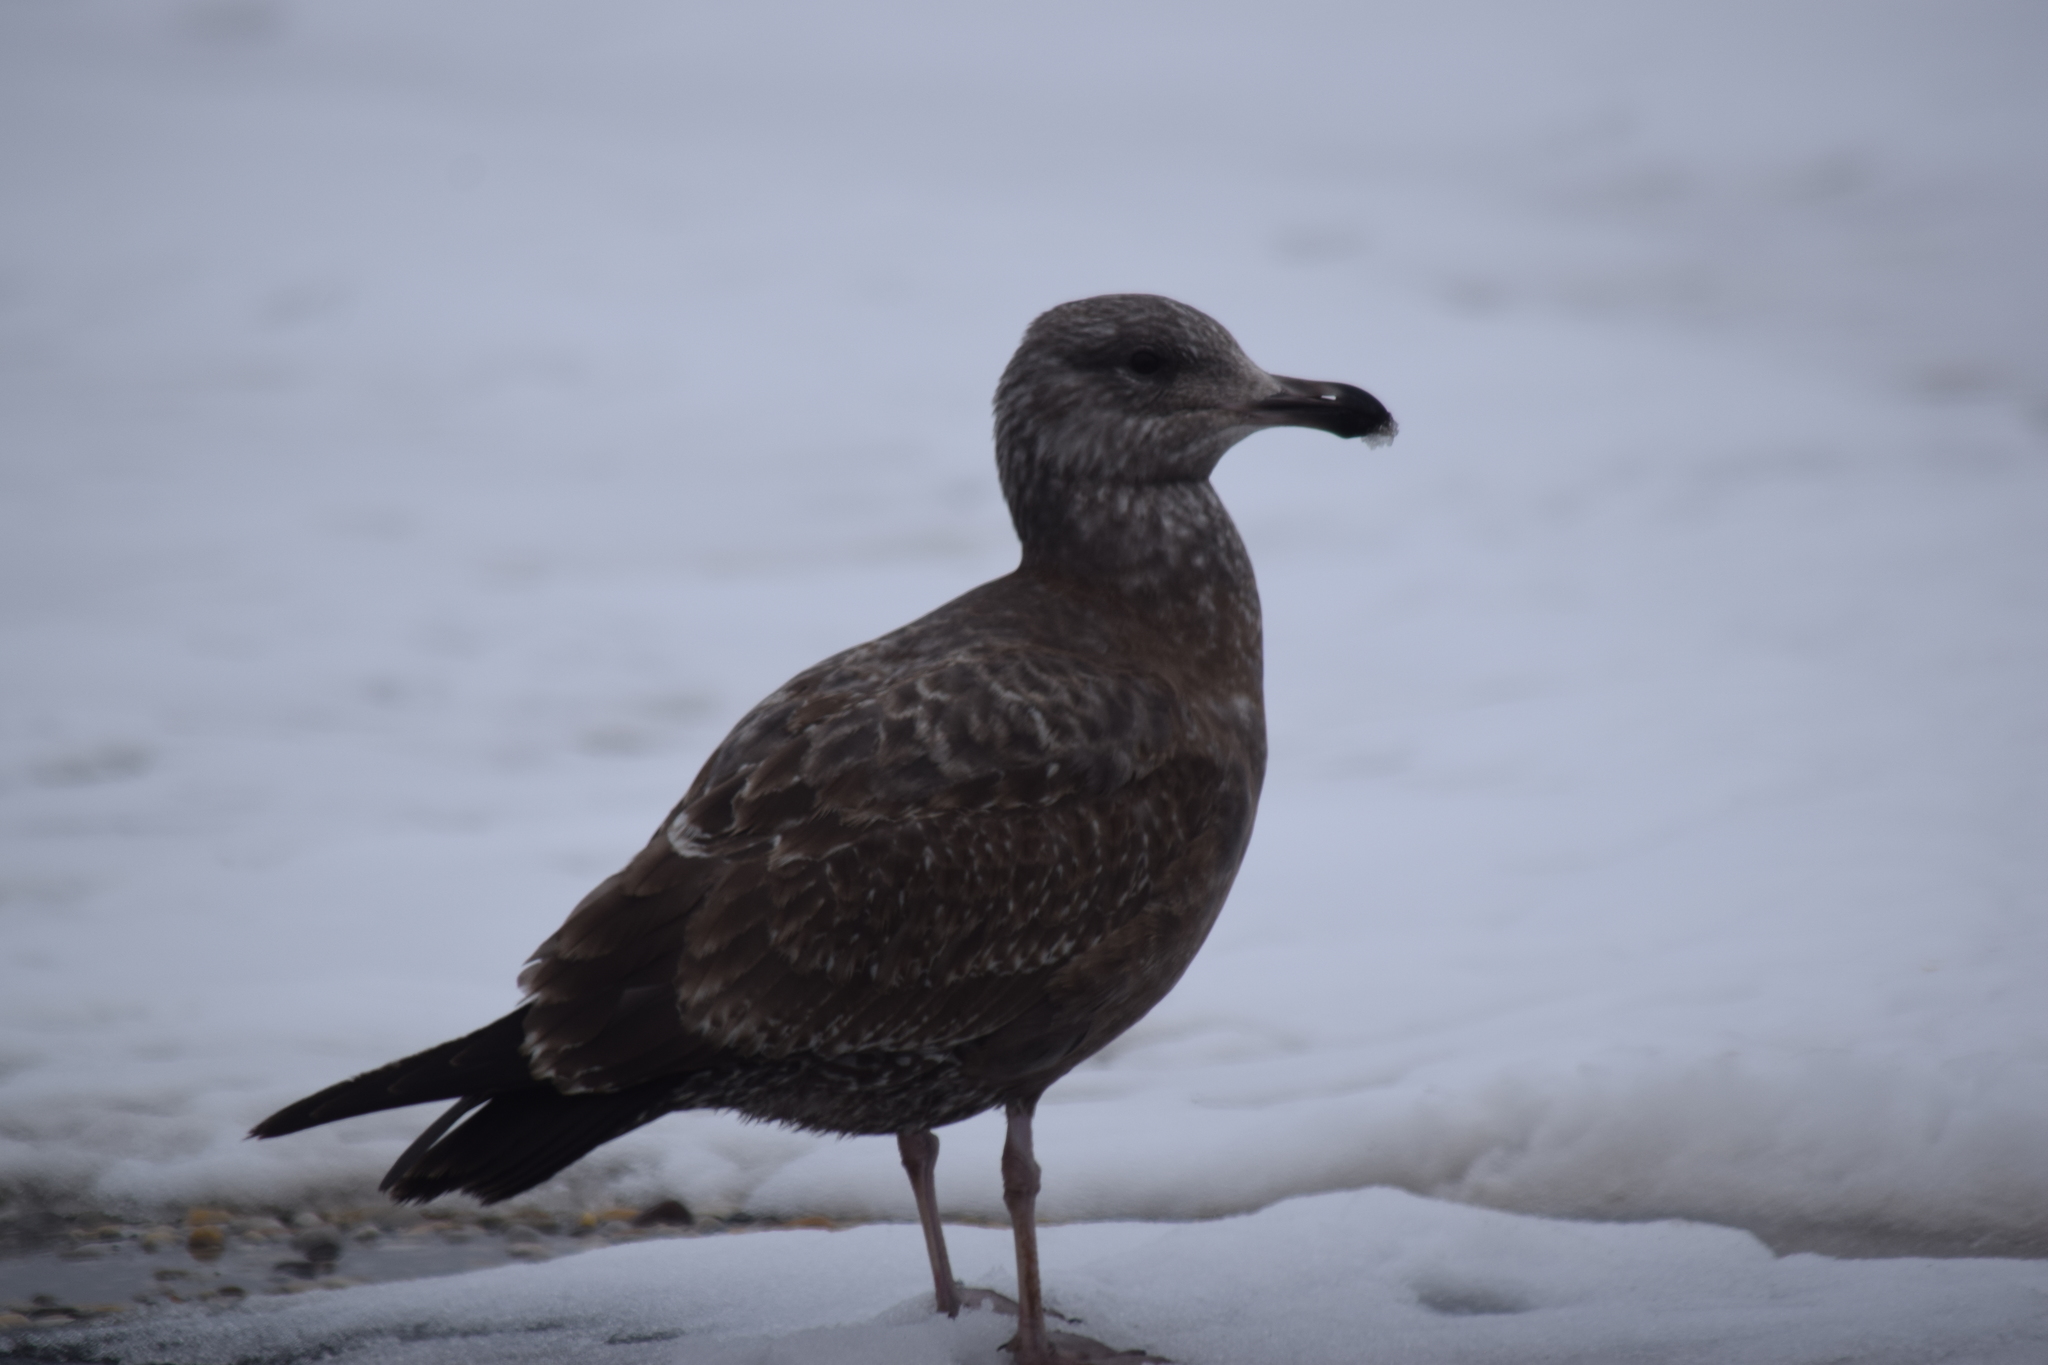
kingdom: Animalia
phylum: Chordata
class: Aves
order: Charadriiformes
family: Laridae
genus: Larus
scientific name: Larus argentatus
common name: Herring gull
